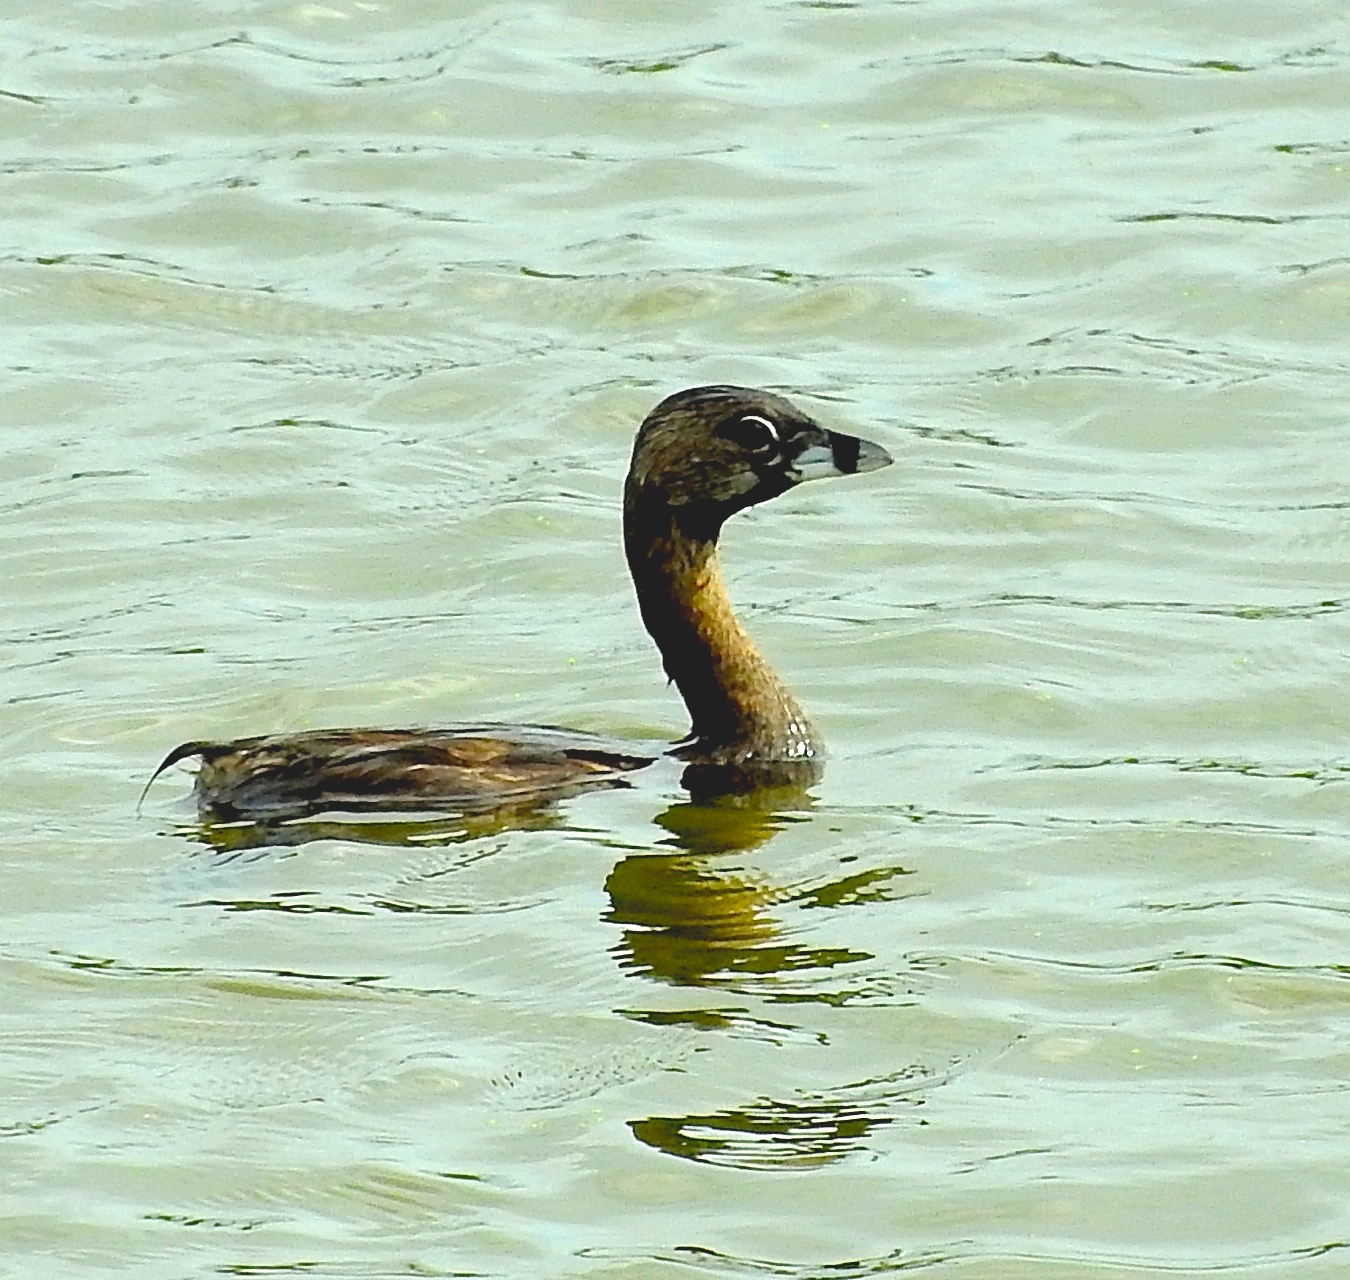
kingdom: Animalia
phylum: Chordata
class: Aves
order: Podicipediformes
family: Podicipedidae
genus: Podilymbus
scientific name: Podilymbus podiceps
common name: Pied-billed grebe
